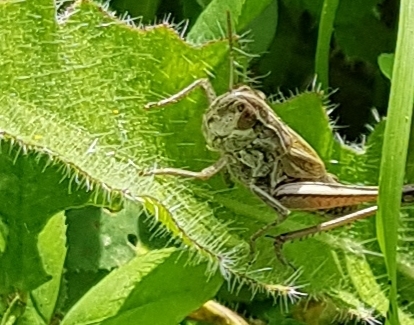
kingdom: Animalia
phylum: Arthropoda
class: Insecta
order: Orthoptera
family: Acrididae
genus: Pseudochorthippus
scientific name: Pseudochorthippus parallelus
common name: Meadow grasshopper
